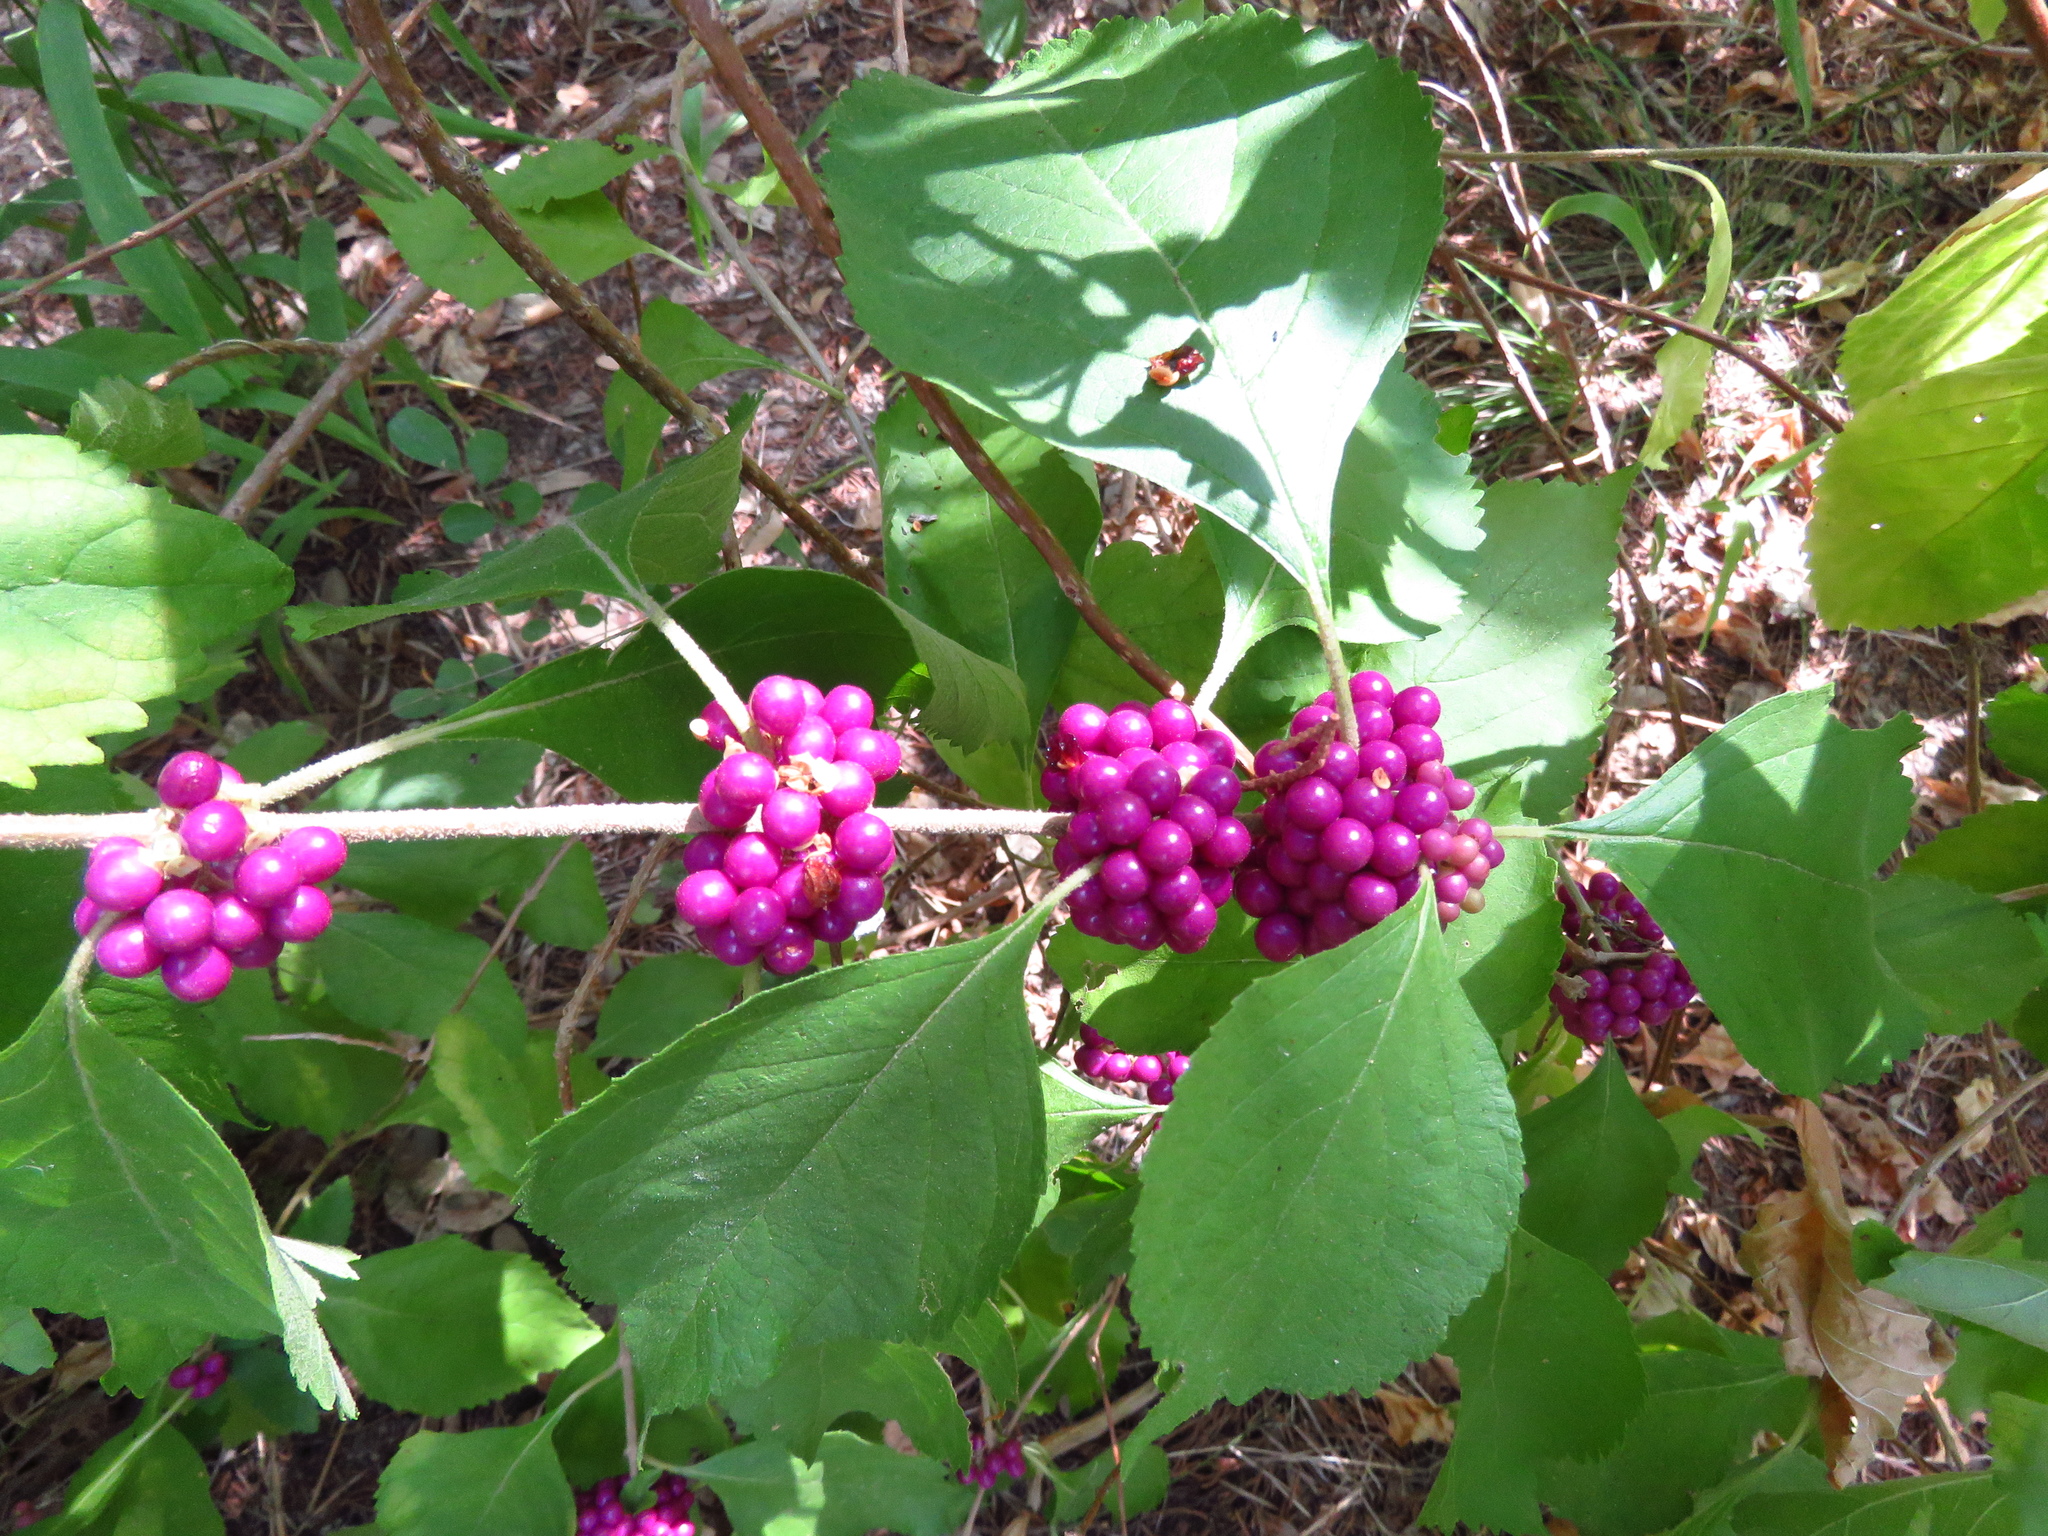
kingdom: Plantae
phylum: Tracheophyta
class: Magnoliopsida
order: Lamiales
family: Lamiaceae
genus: Callicarpa
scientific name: Callicarpa americana
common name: American beautyberry
